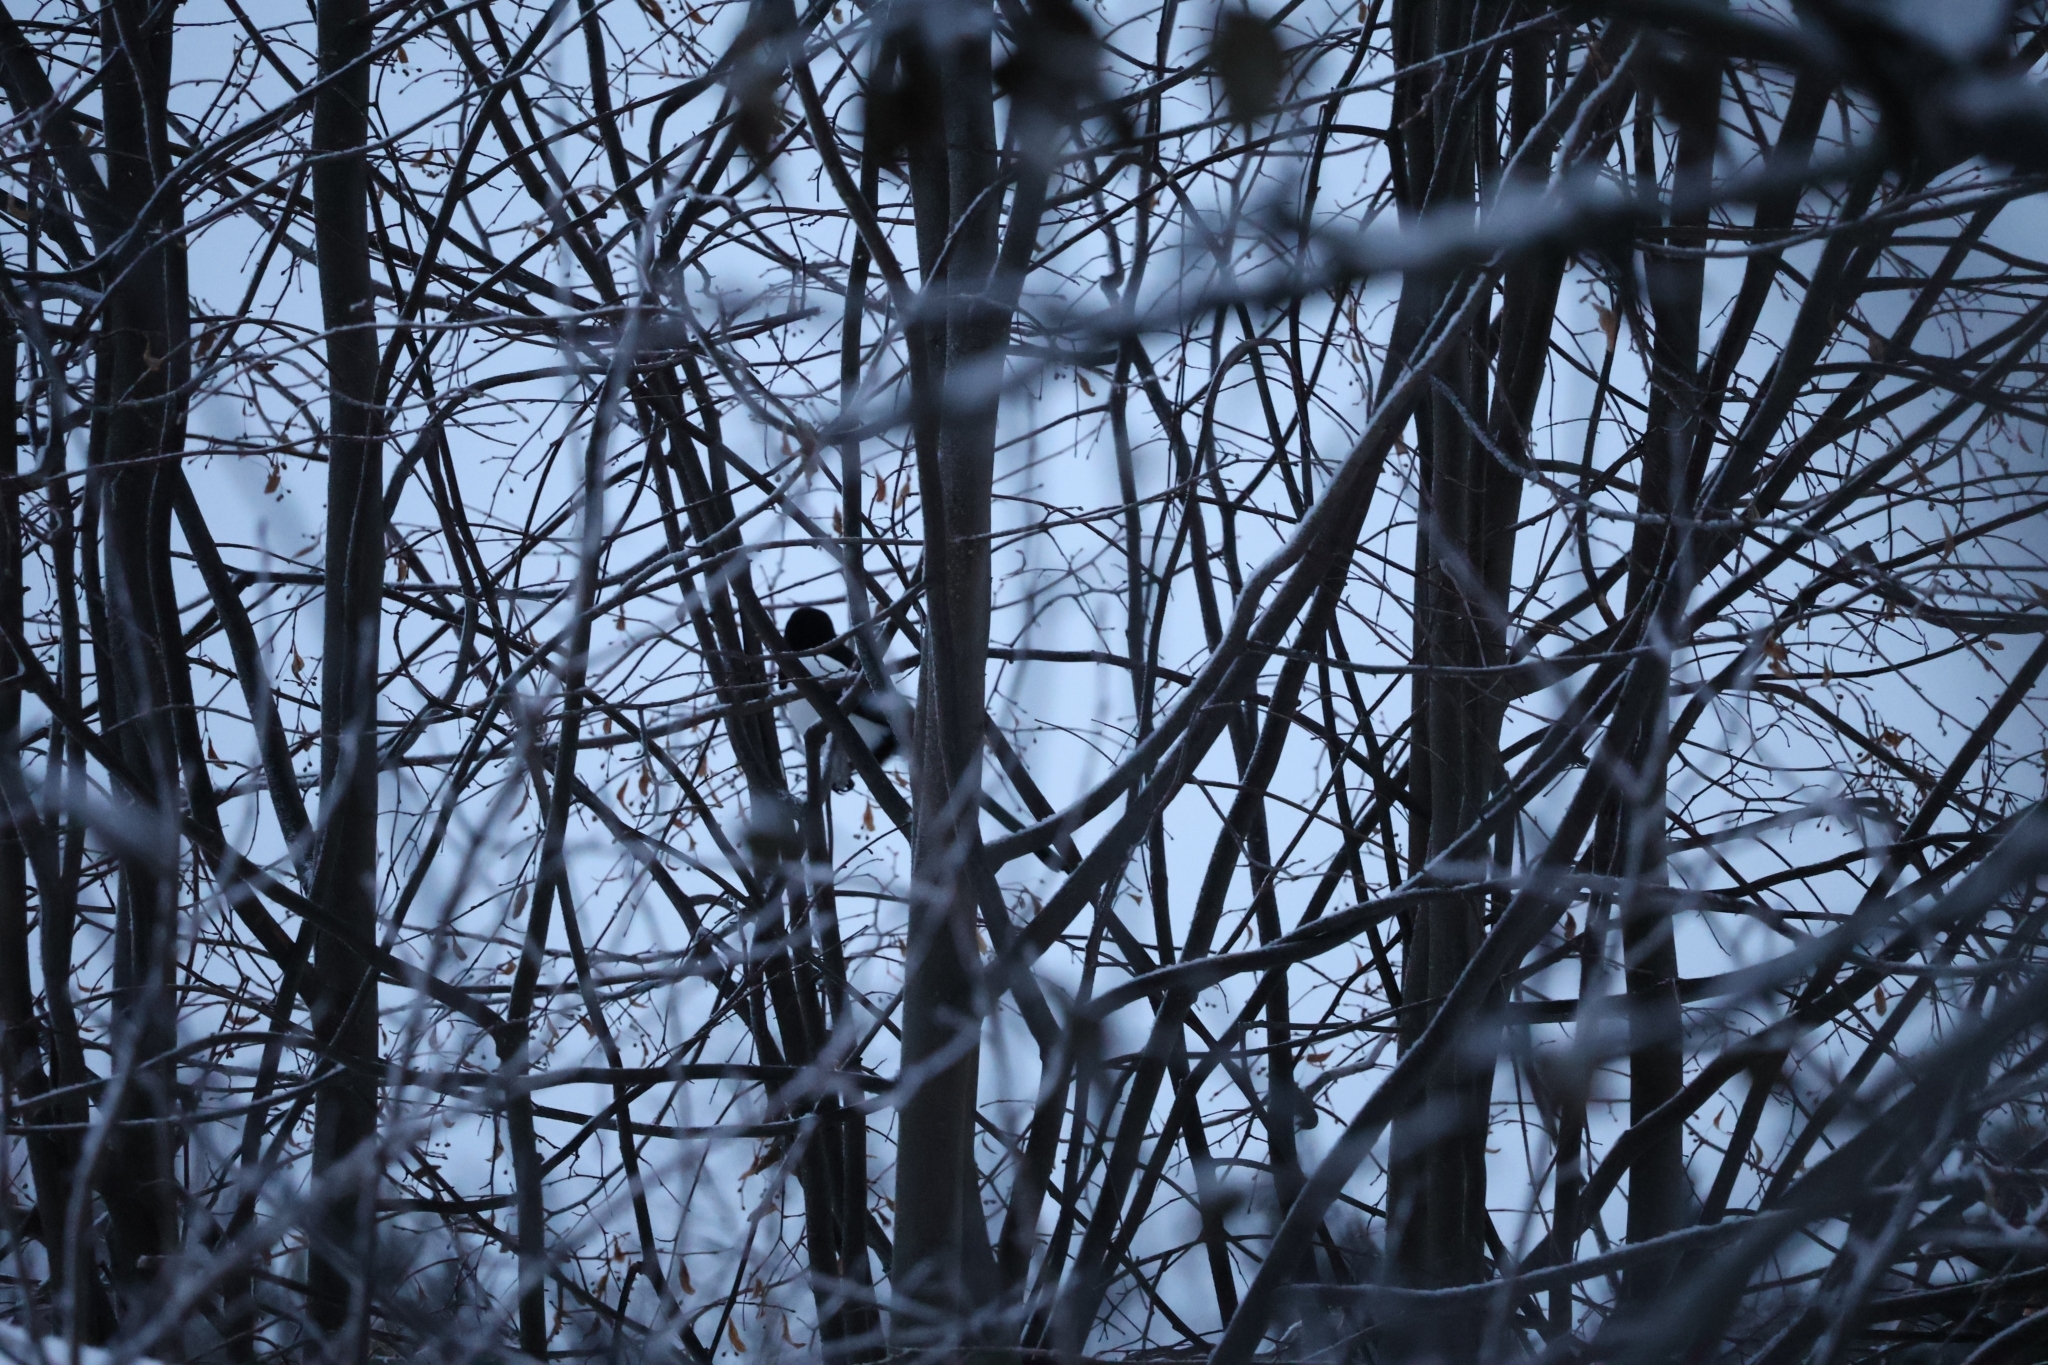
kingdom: Animalia
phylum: Chordata
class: Aves
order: Passeriformes
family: Corvidae
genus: Pica
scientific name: Pica pica
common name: Eurasian magpie
